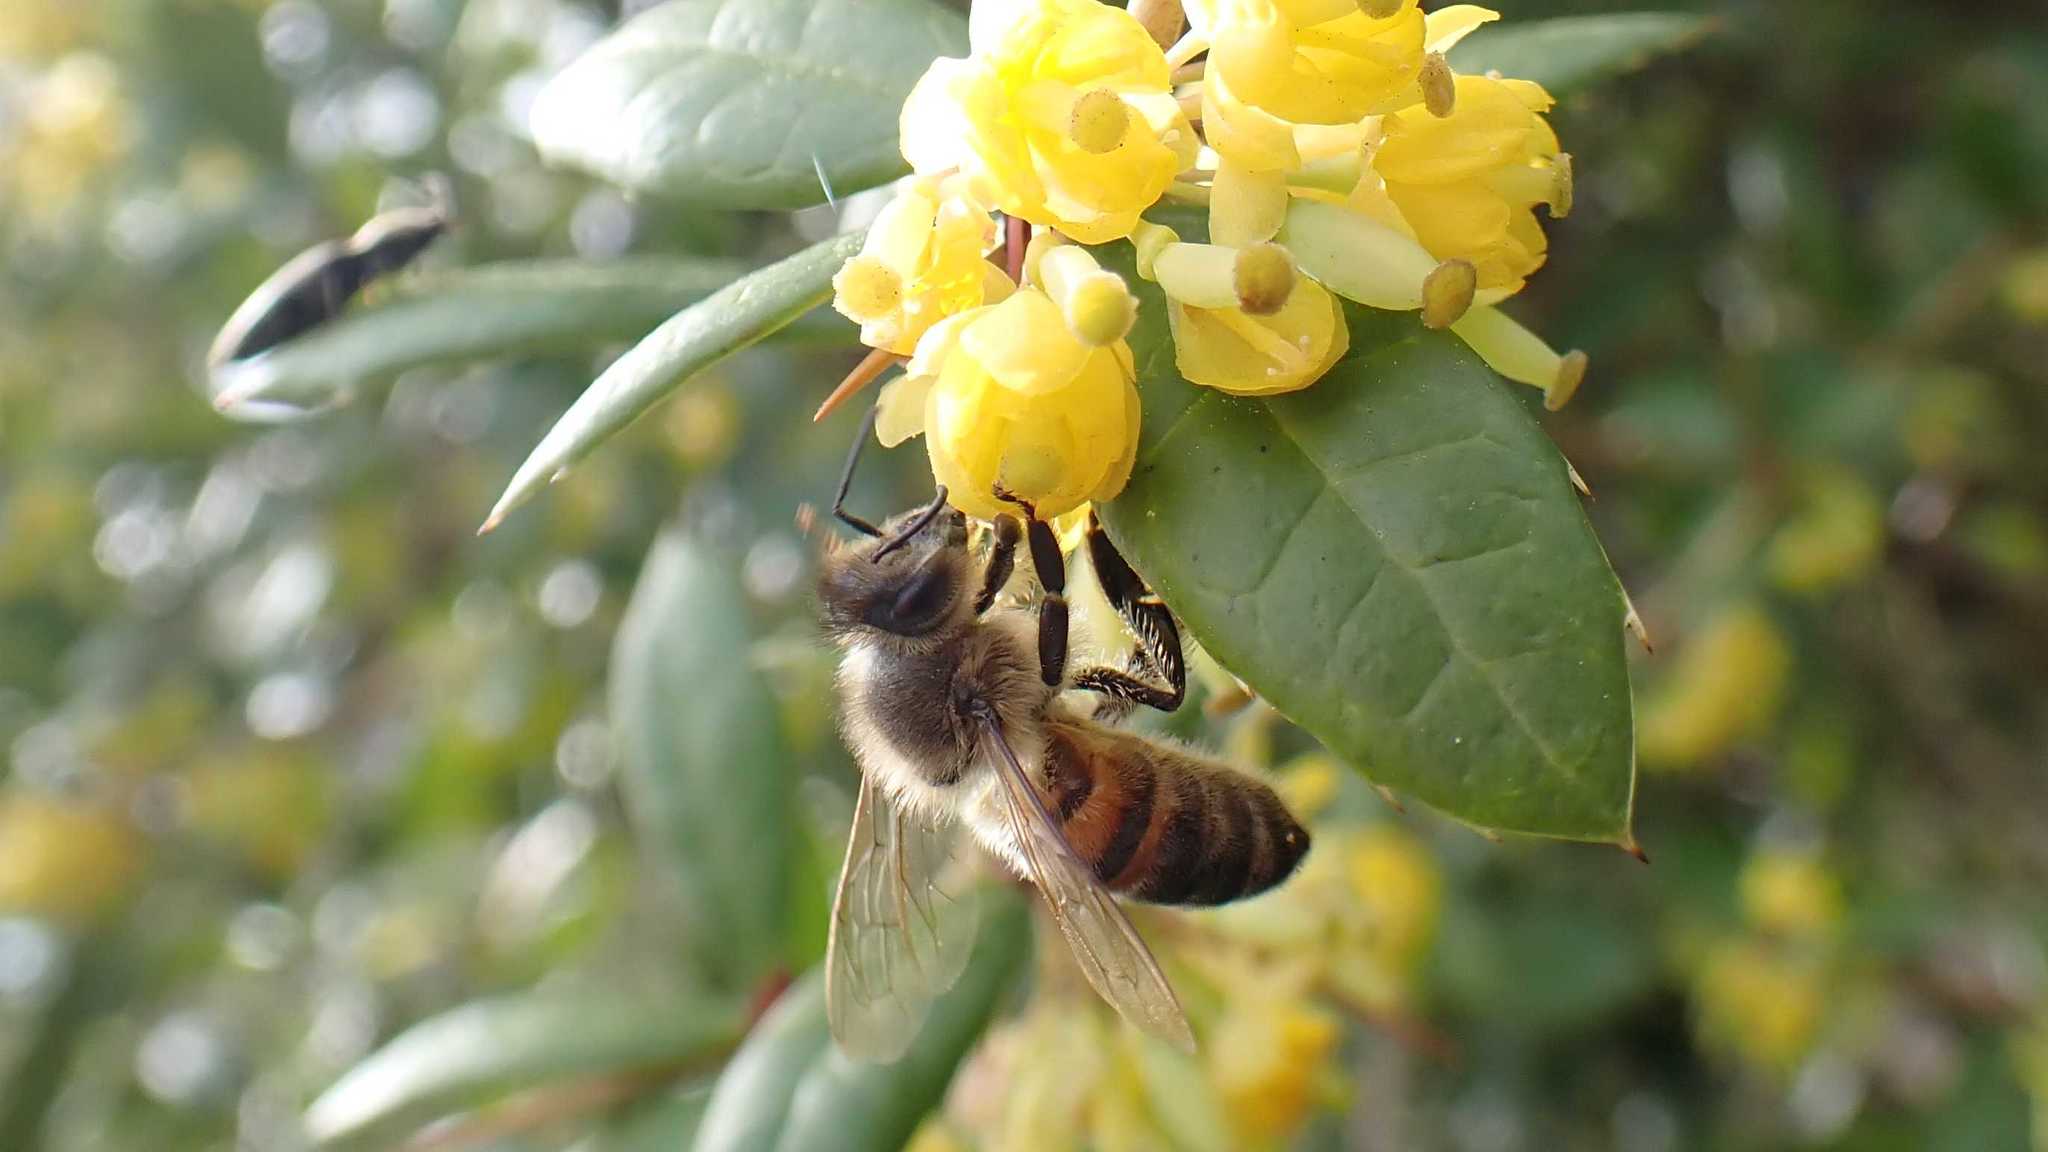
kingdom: Animalia
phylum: Arthropoda
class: Insecta
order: Hymenoptera
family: Apidae
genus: Apis
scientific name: Apis mellifera
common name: Honey bee
